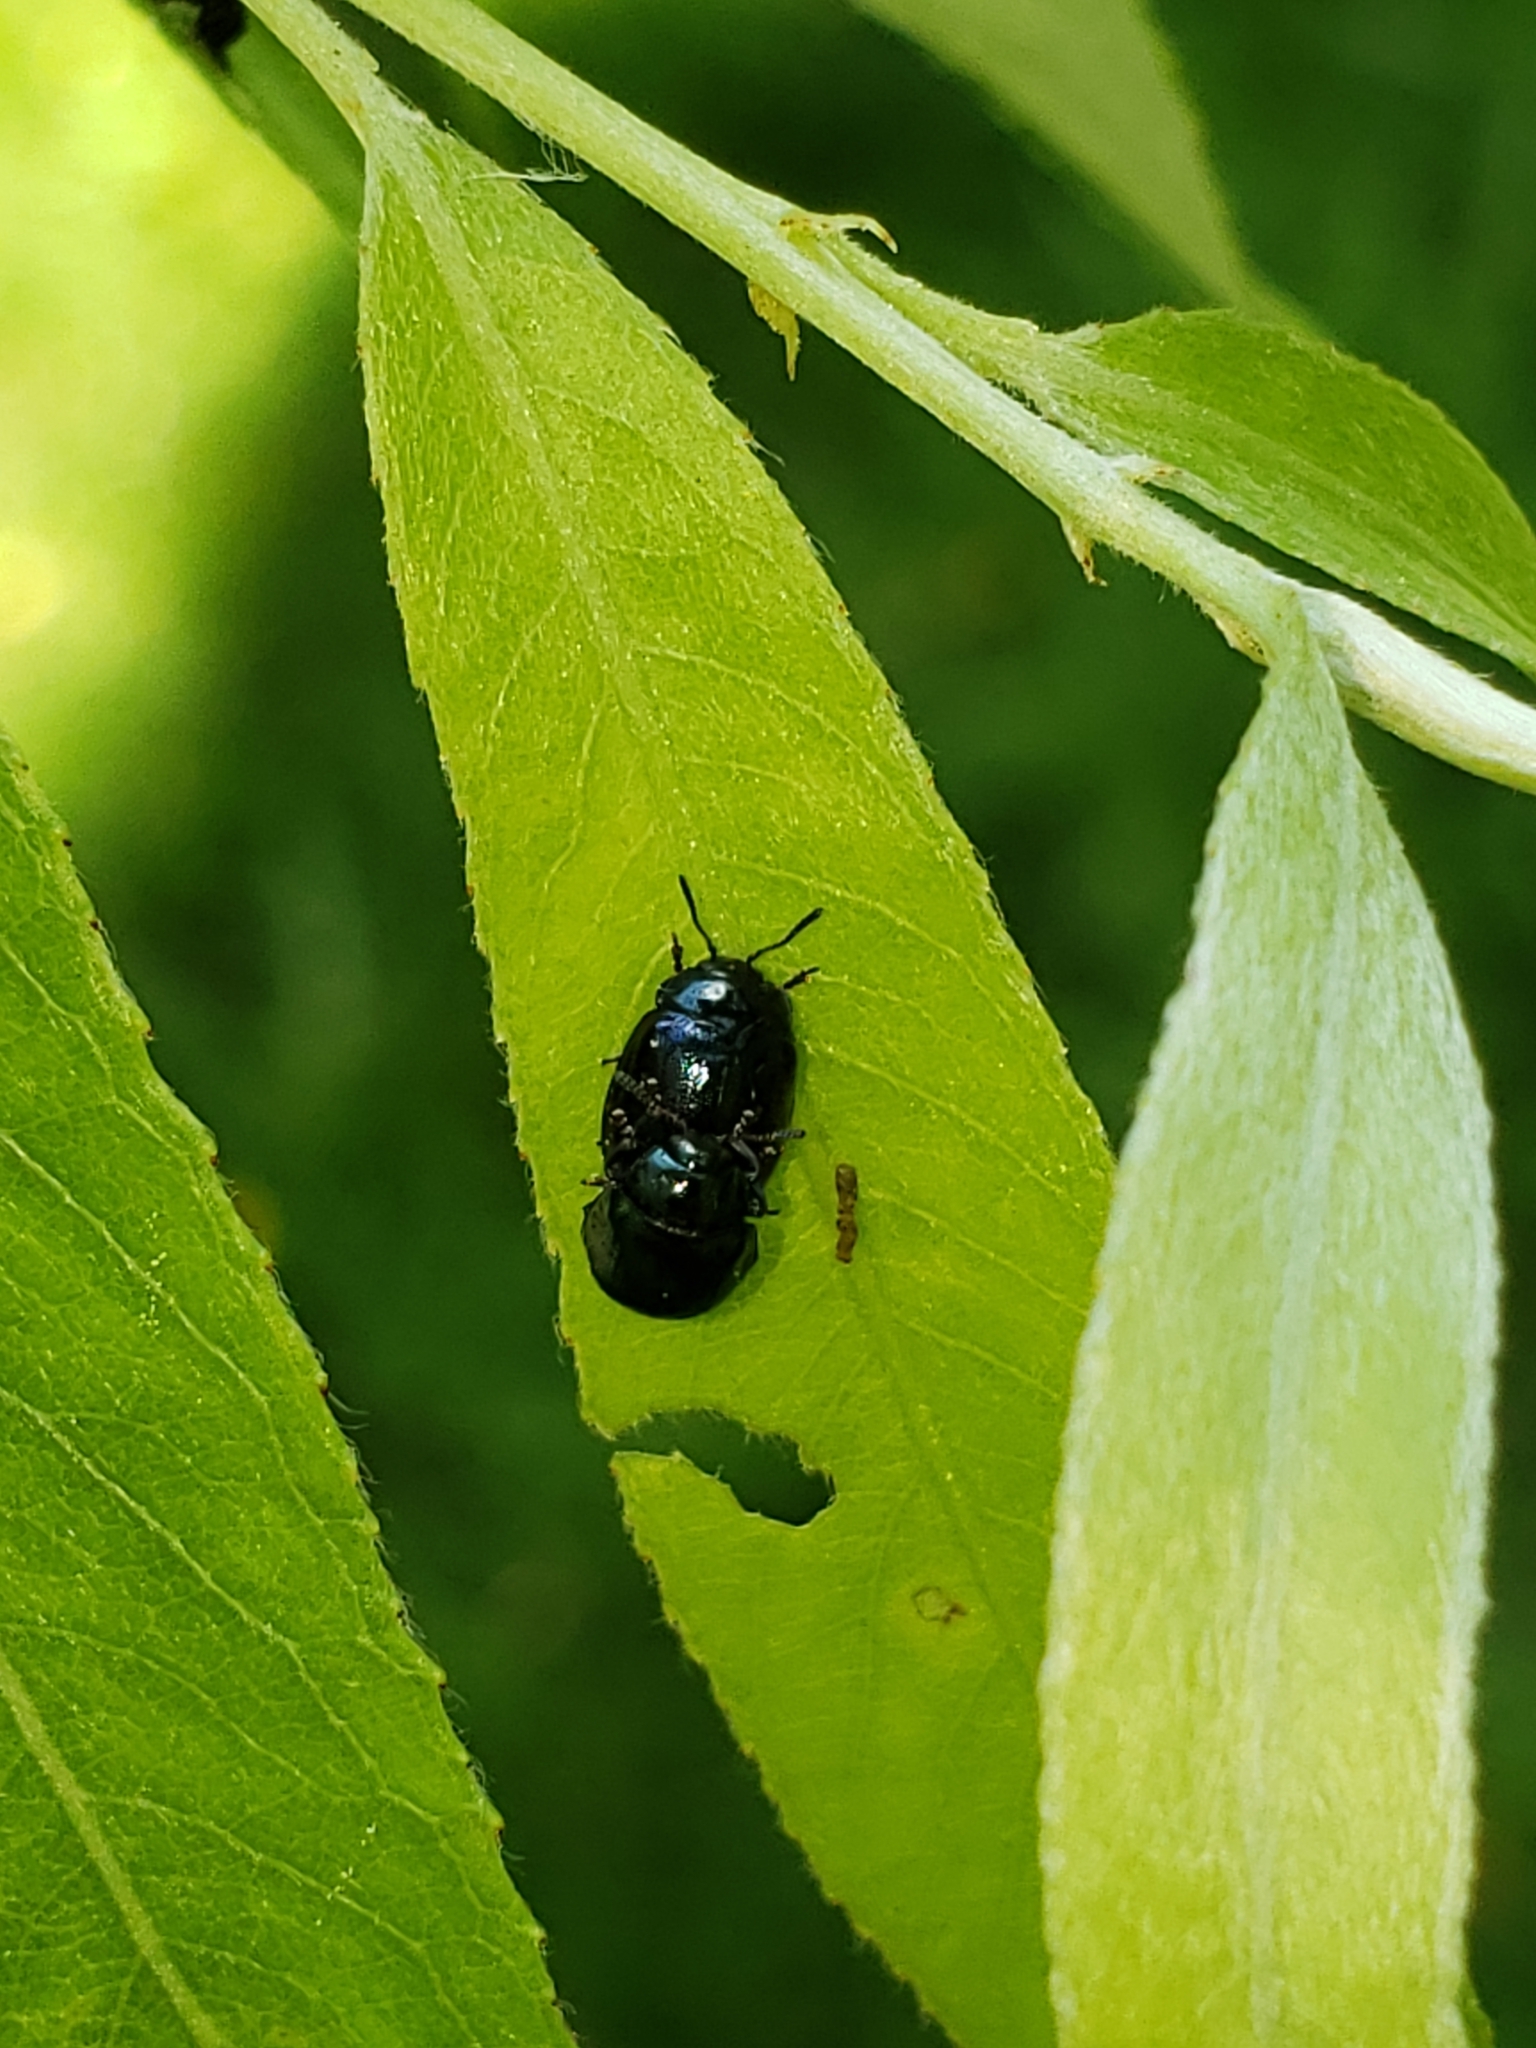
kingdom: Animalia
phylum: Arthropoda
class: Insecta
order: Coleoptera
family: Chrysomelidae
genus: Plagiodera
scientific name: Plagiodera versicolora
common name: Imported willow leaf beetle
